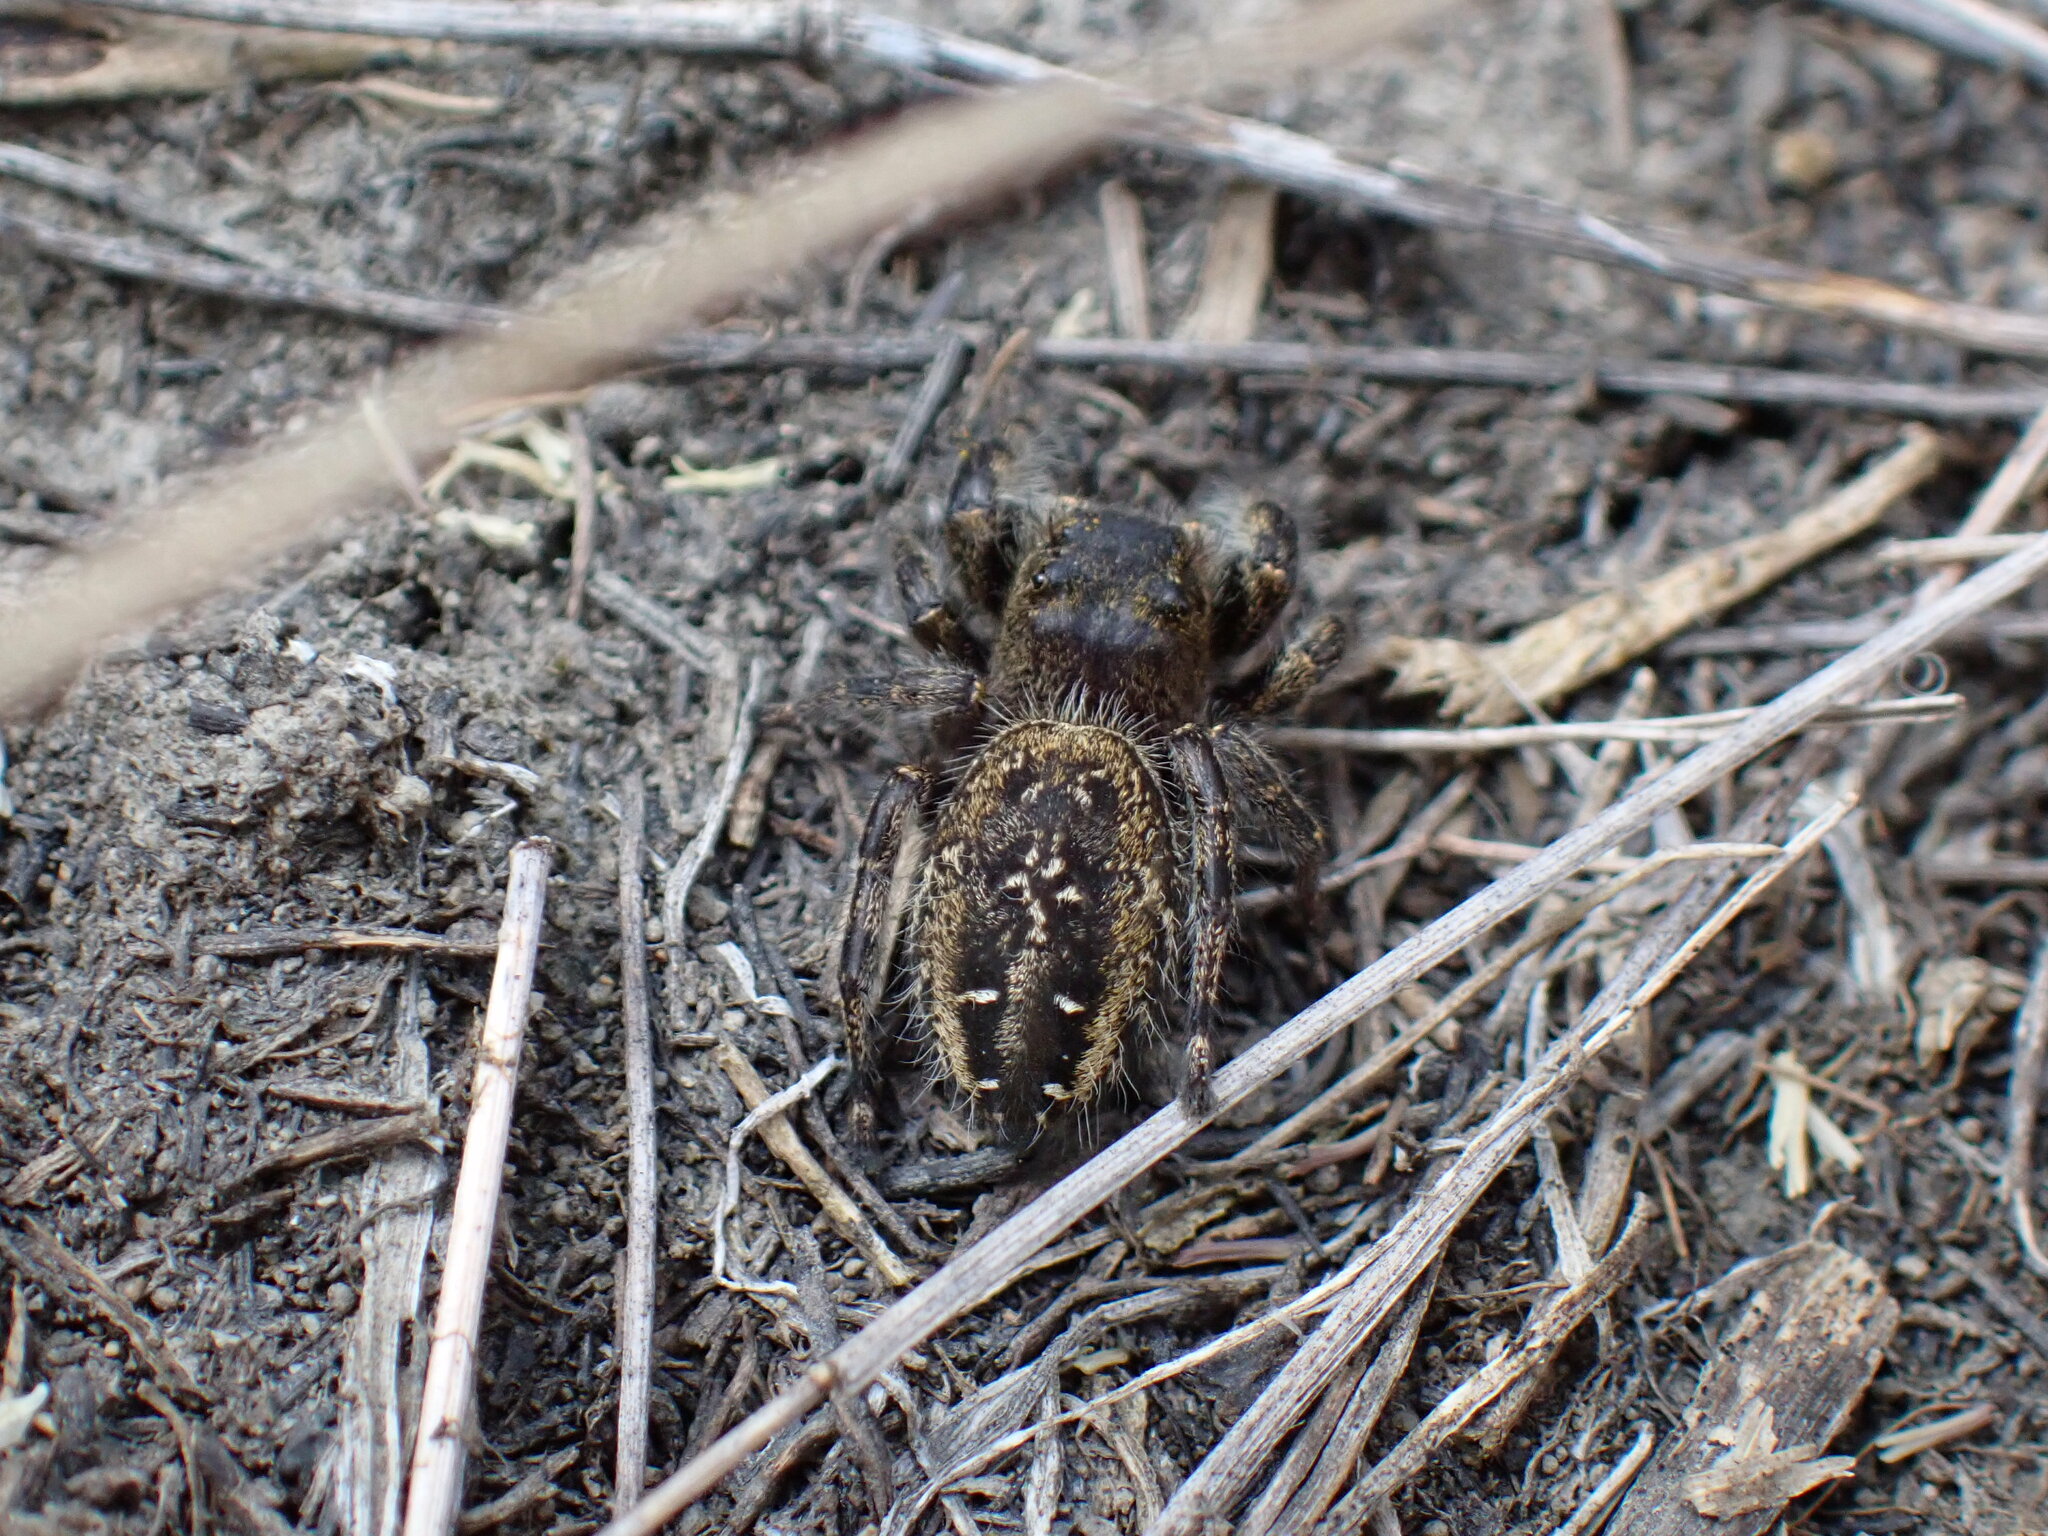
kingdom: Animalia
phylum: Arthropoda
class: Arachnida
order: Araneae
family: Salticidae
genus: Phidippus
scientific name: Phidippus purpuratus
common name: Marbled purple jumping spider
